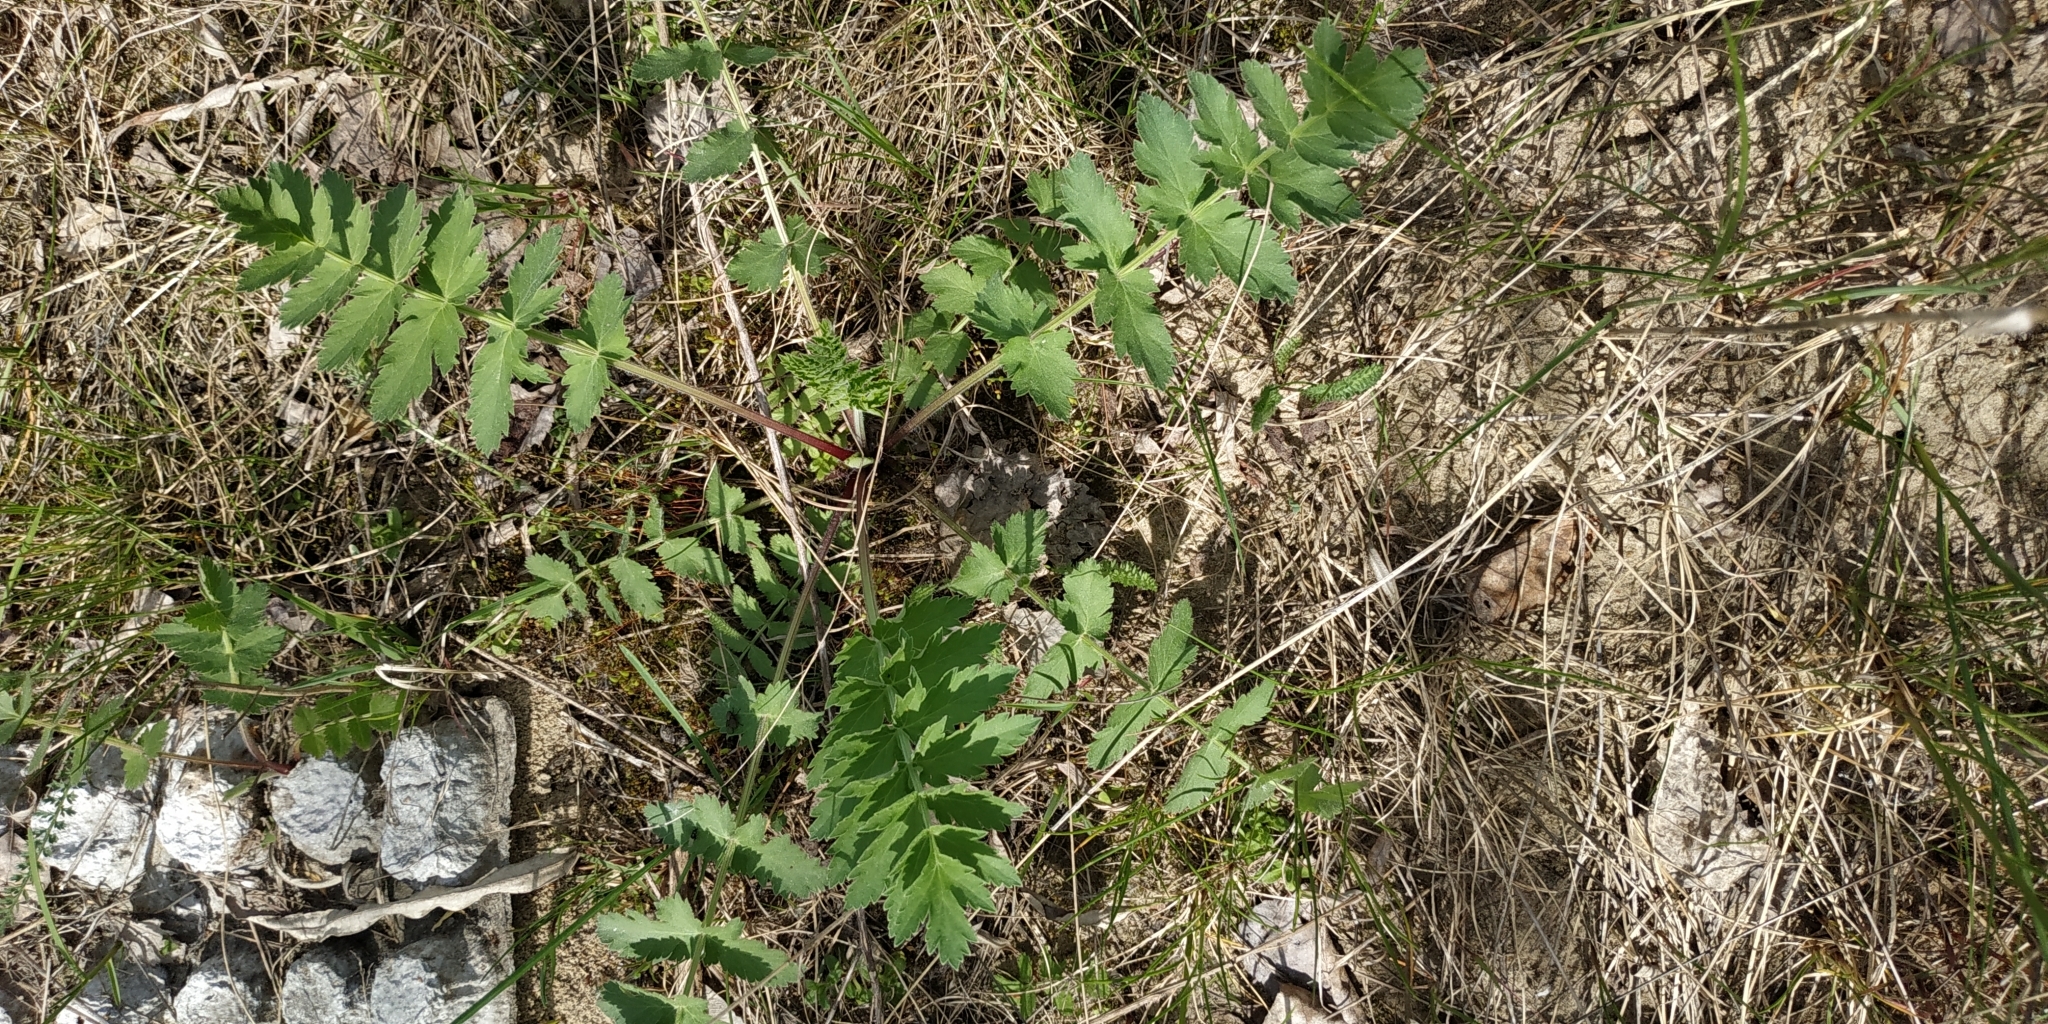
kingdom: Plantae
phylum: Tracheophyta
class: Magnoliopsida
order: Apiales
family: Apiaceae
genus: Pimpinella
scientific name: Pimpinella saxifraga
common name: Burnet-saxifrage
